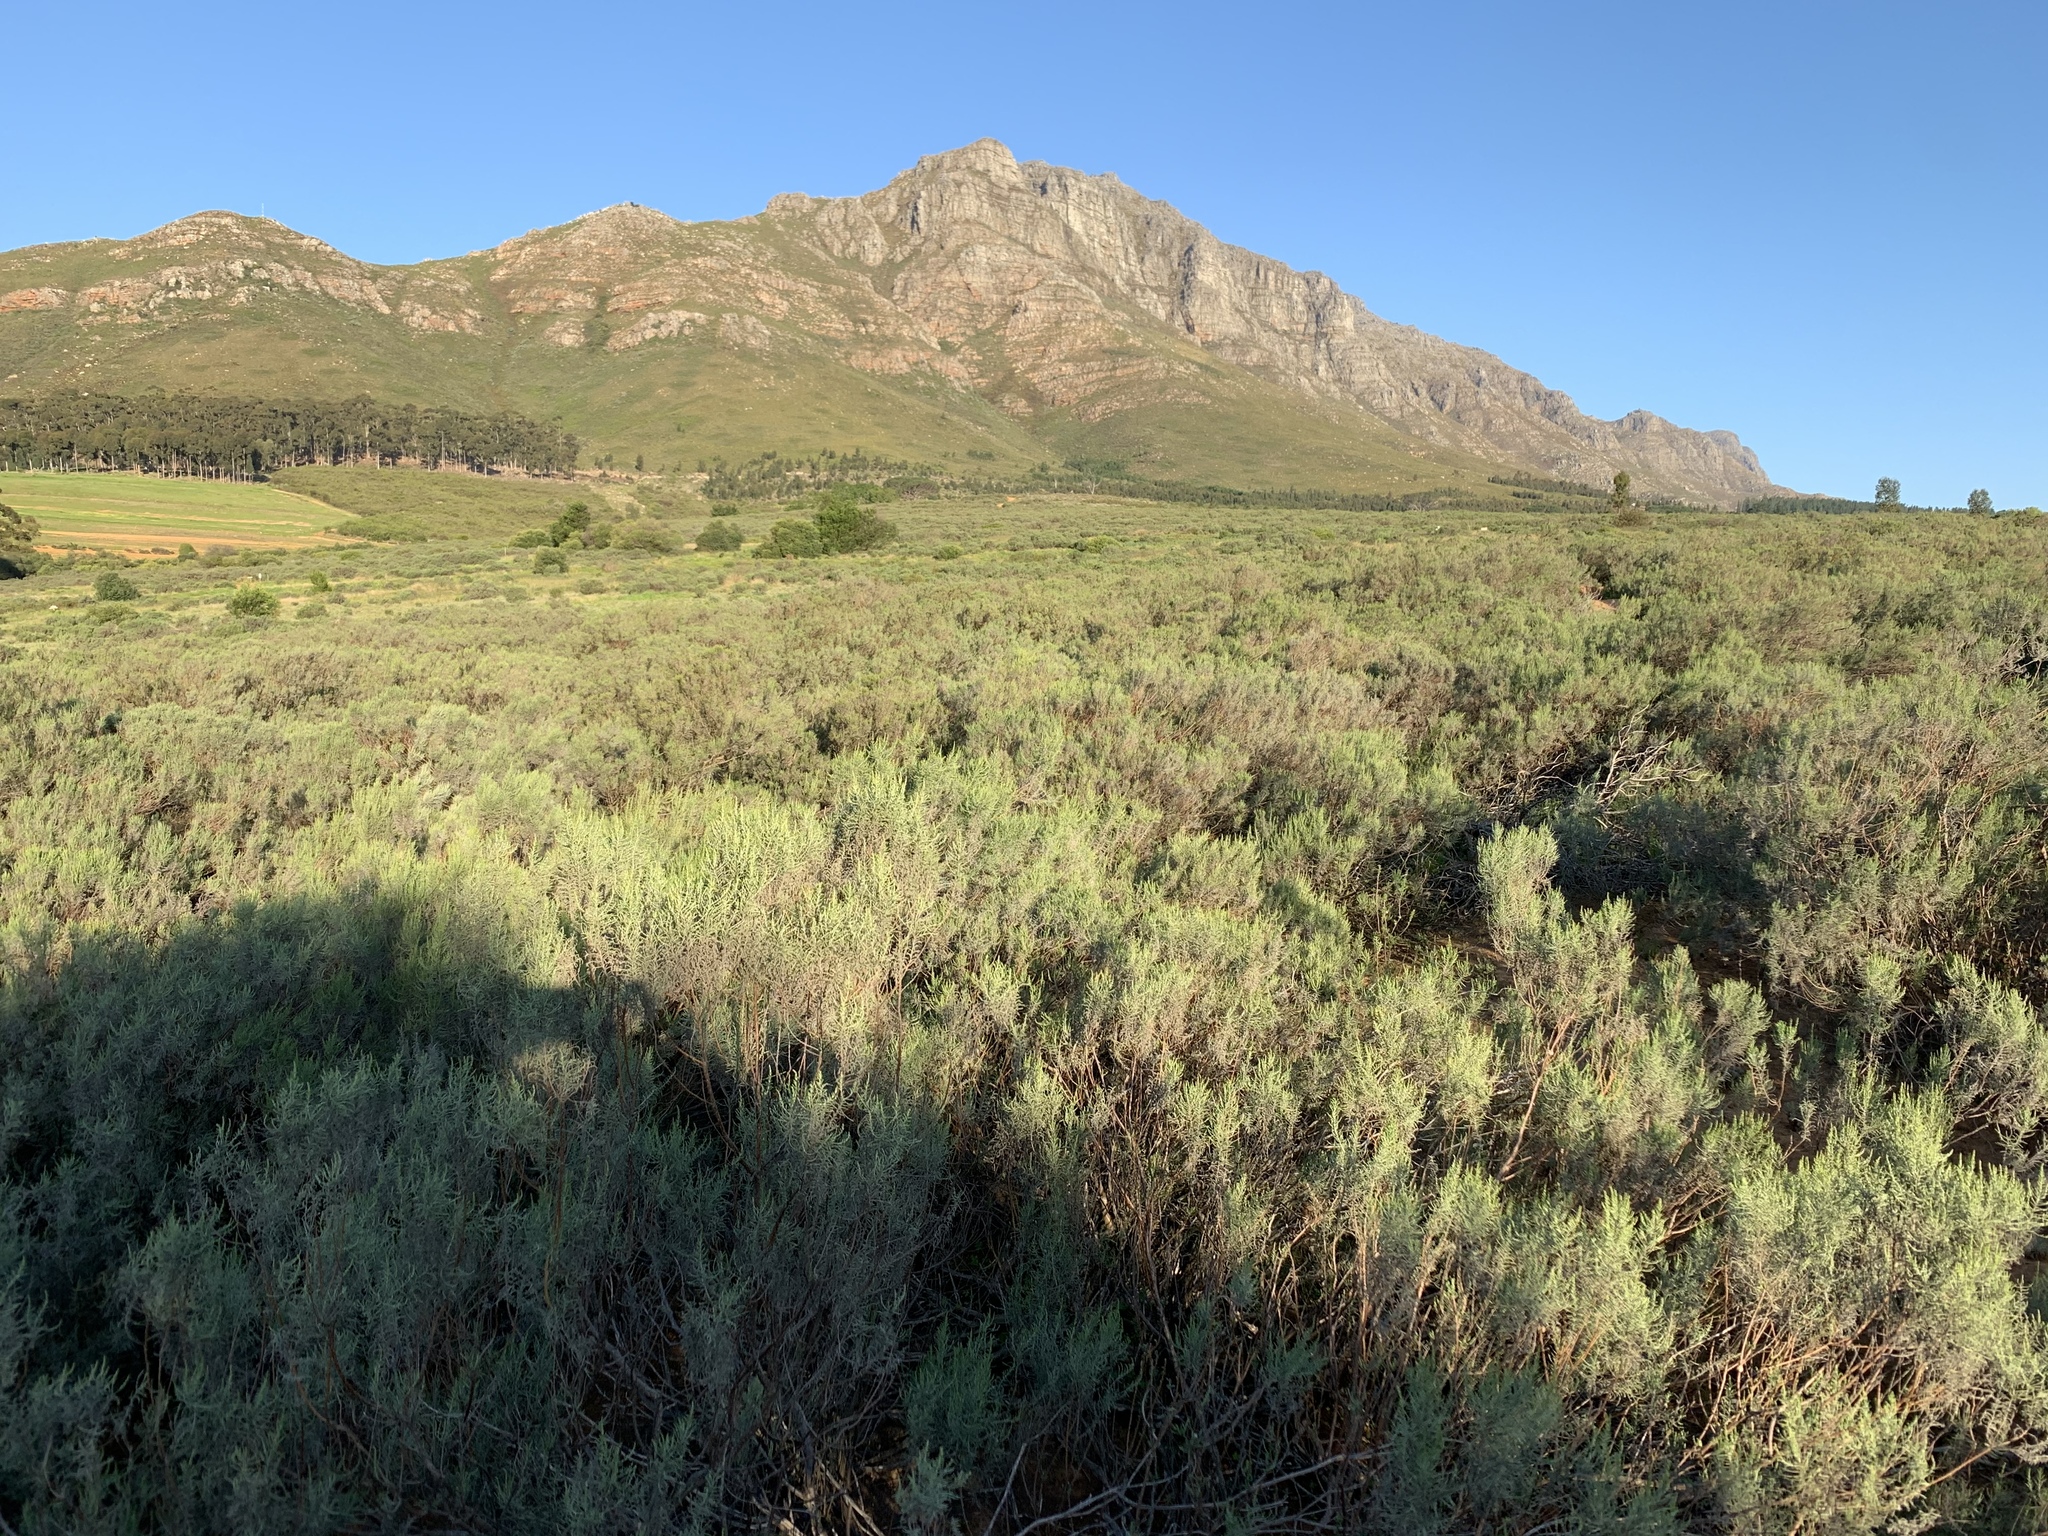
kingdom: Plantae
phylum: Tracheophyta
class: Magnoliopsida
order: Asterales
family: Asteraceae
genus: Dicerothamnus
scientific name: Dicerothamnus rhinocerotis
